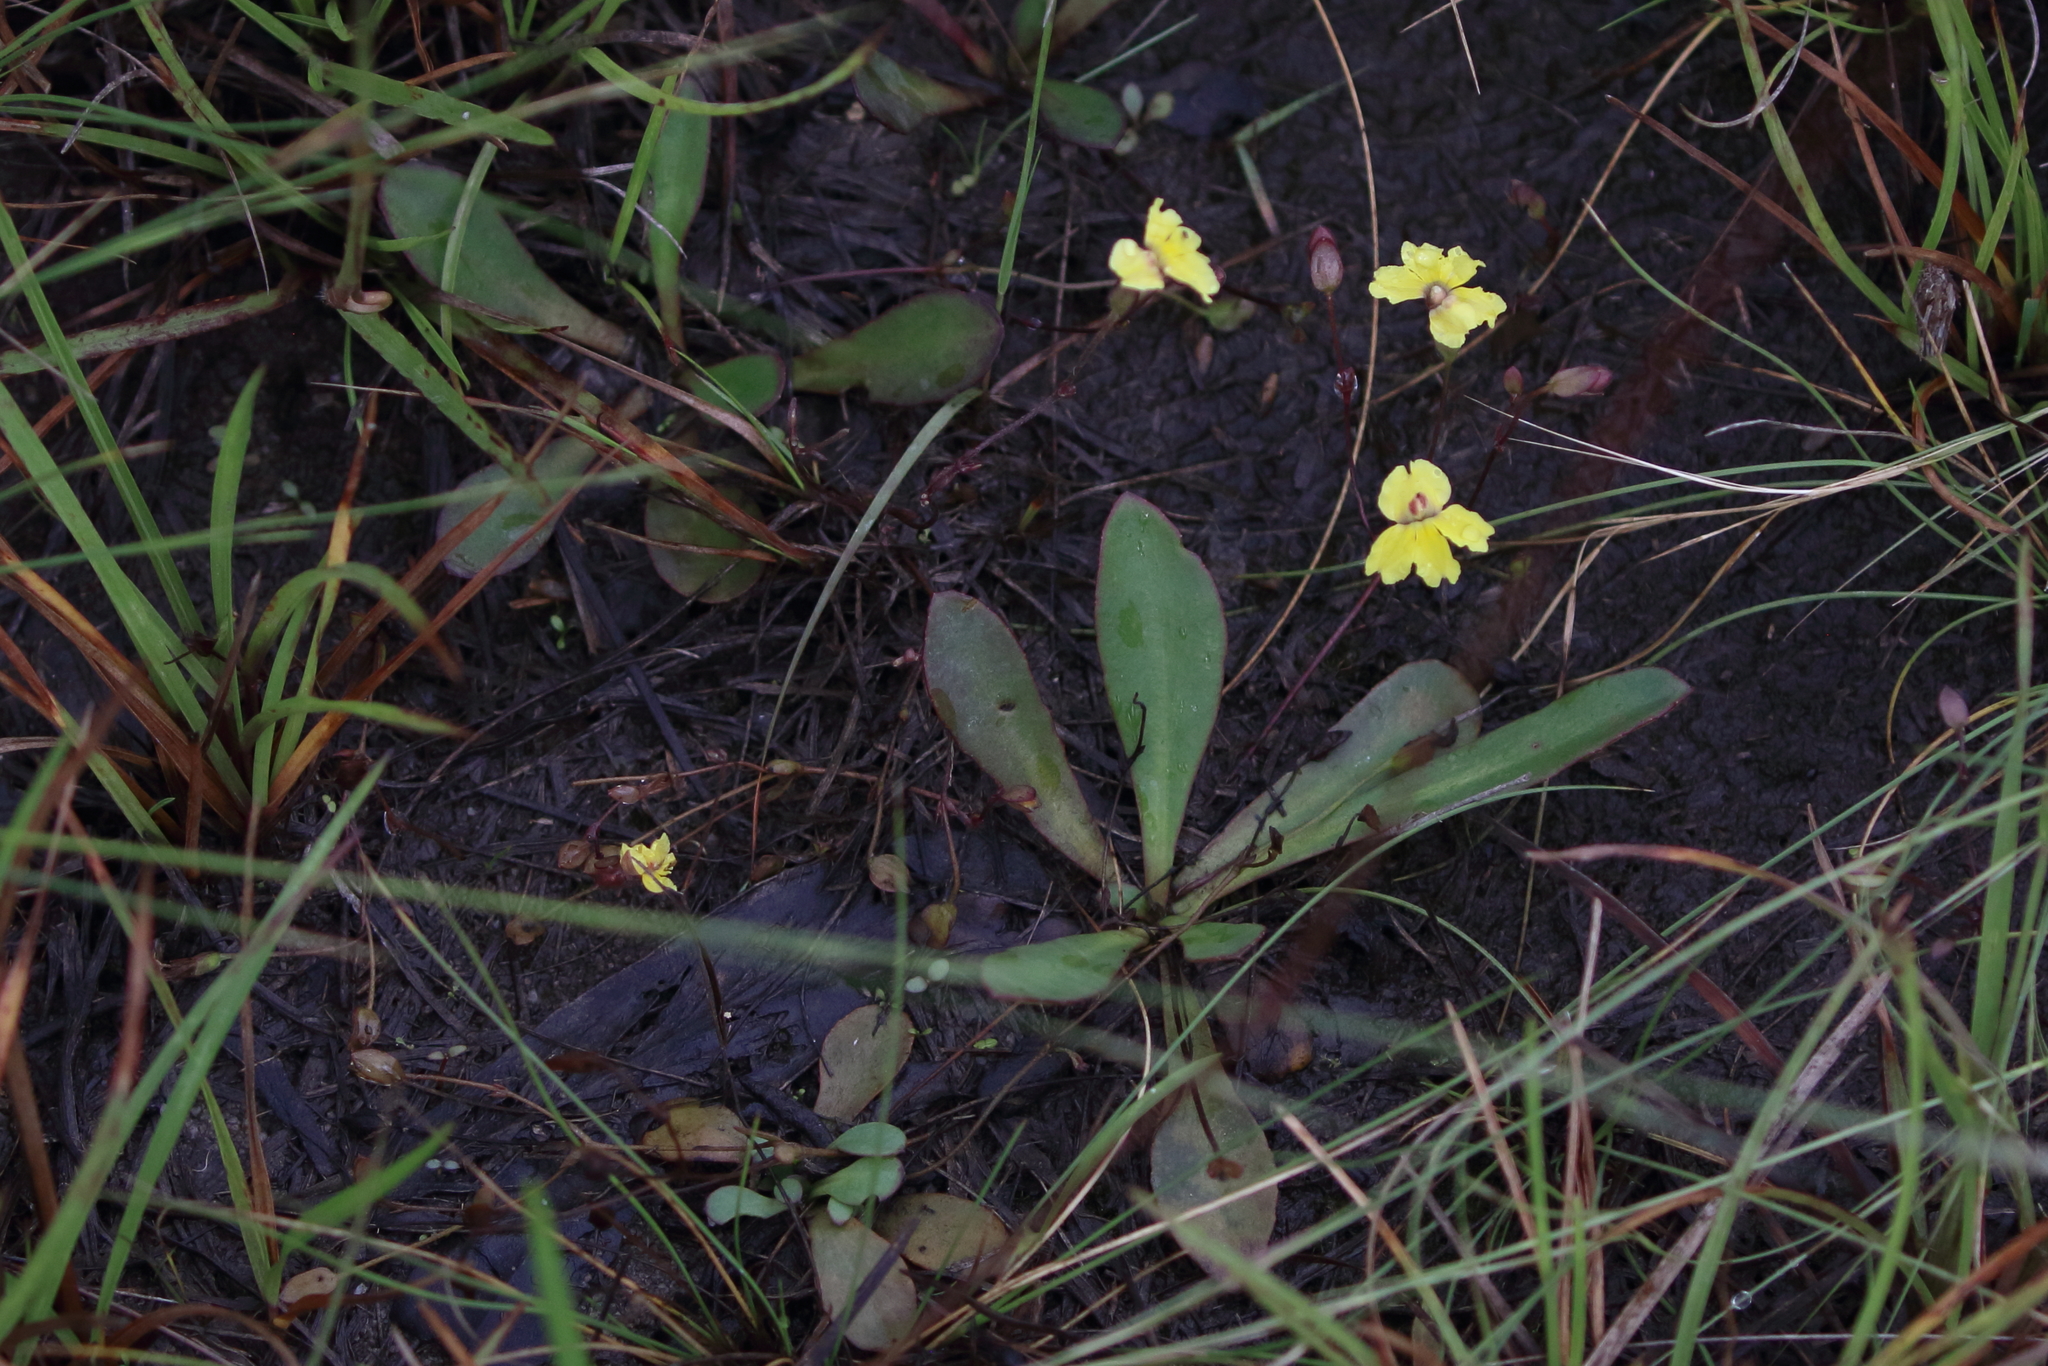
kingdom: Plantae
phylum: Tracheophyta
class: Magnoliopsida
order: Asterales
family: Goodeniaceae
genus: Goodenia
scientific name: Goodenia mystrophylla
